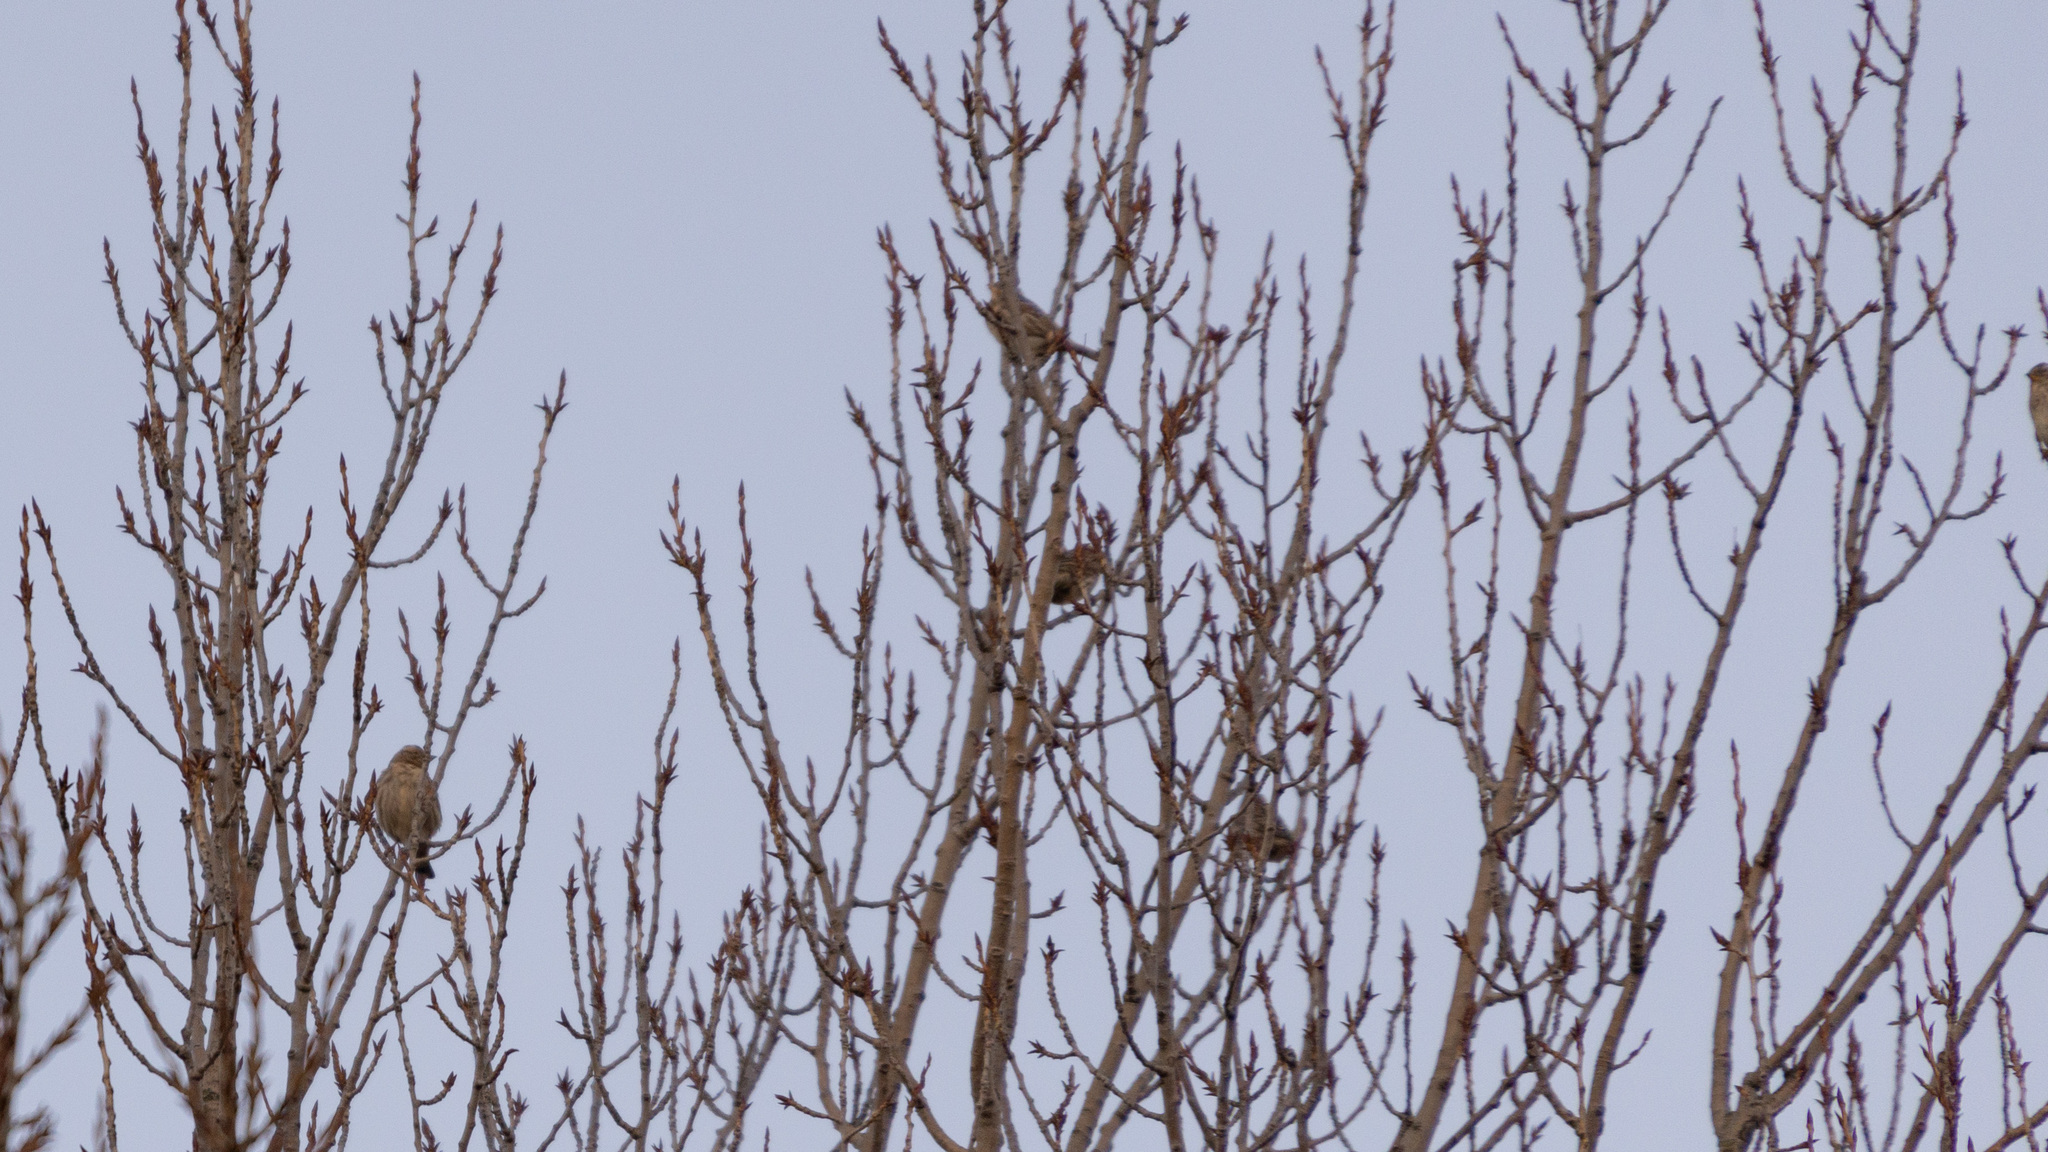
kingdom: Animalia
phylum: Chordata
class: Aves
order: Passeriformes
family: Passeridae
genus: Petronia
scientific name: Petronia petronia
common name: Rock sparrow
